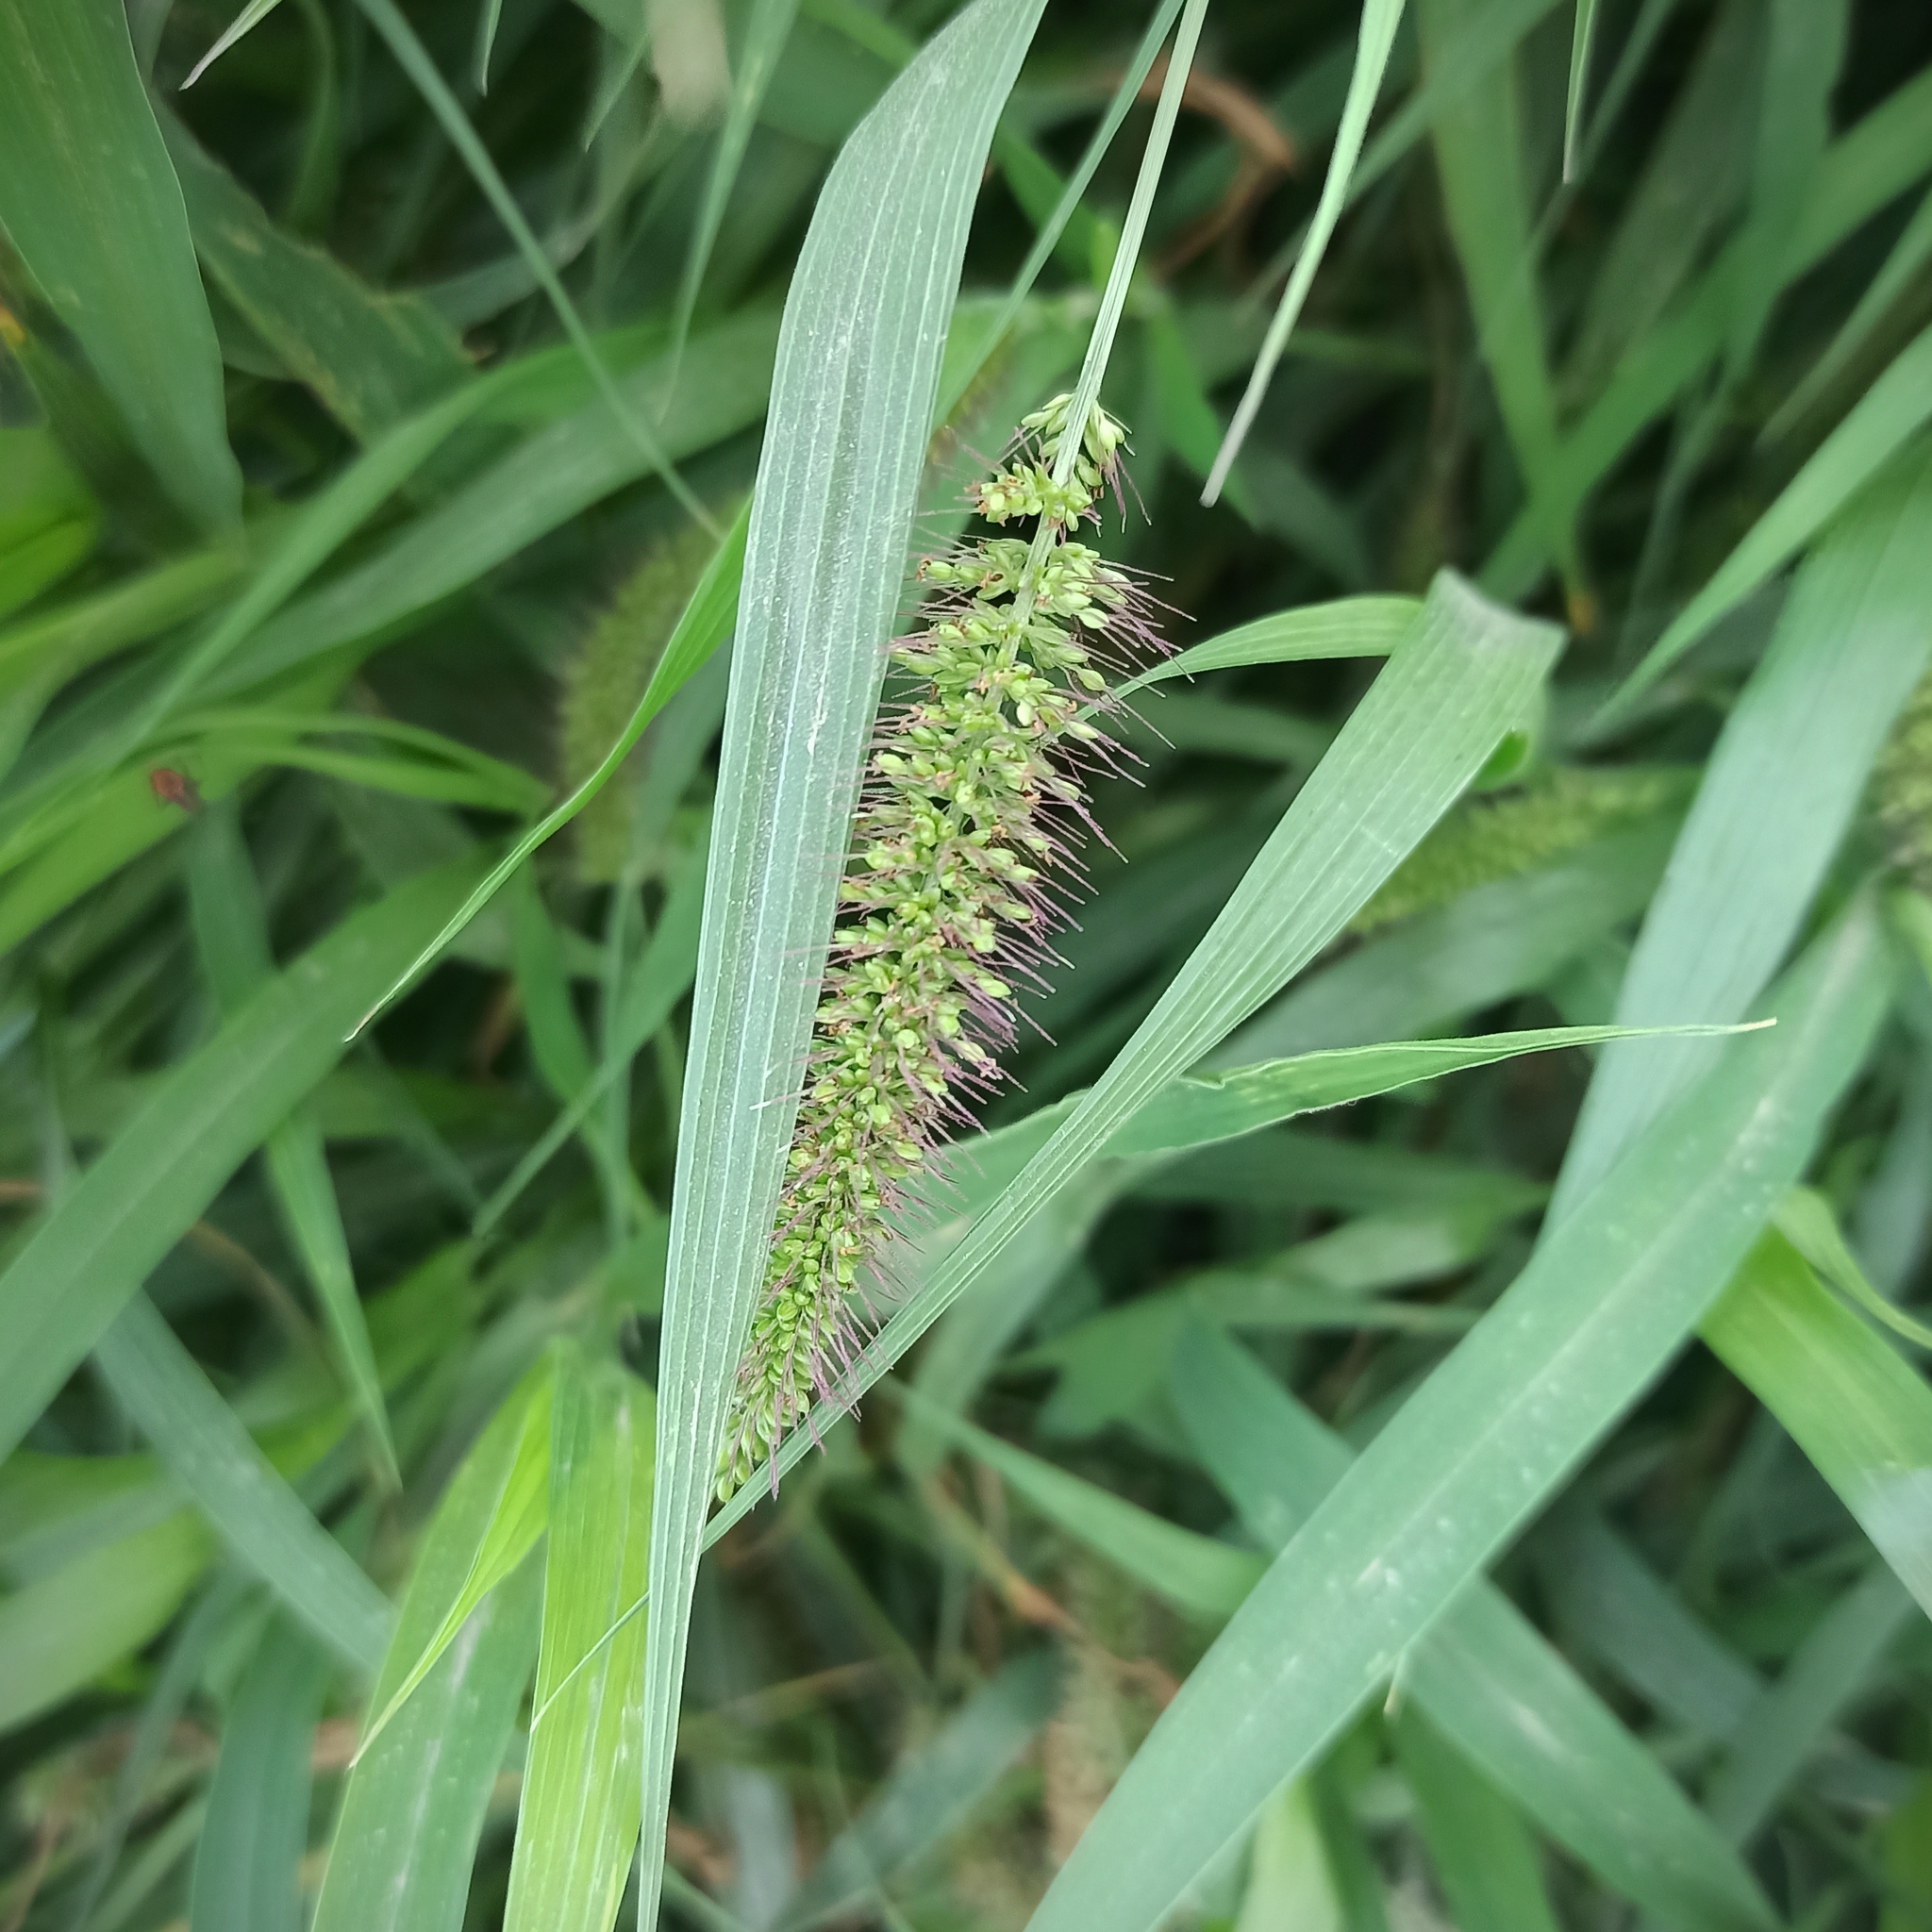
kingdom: Plantae
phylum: Tracheophyta
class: Liliopsida
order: Poales
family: Poaceae
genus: Setaria
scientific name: Setaria adhaerens
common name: Adherent bristle-grass
